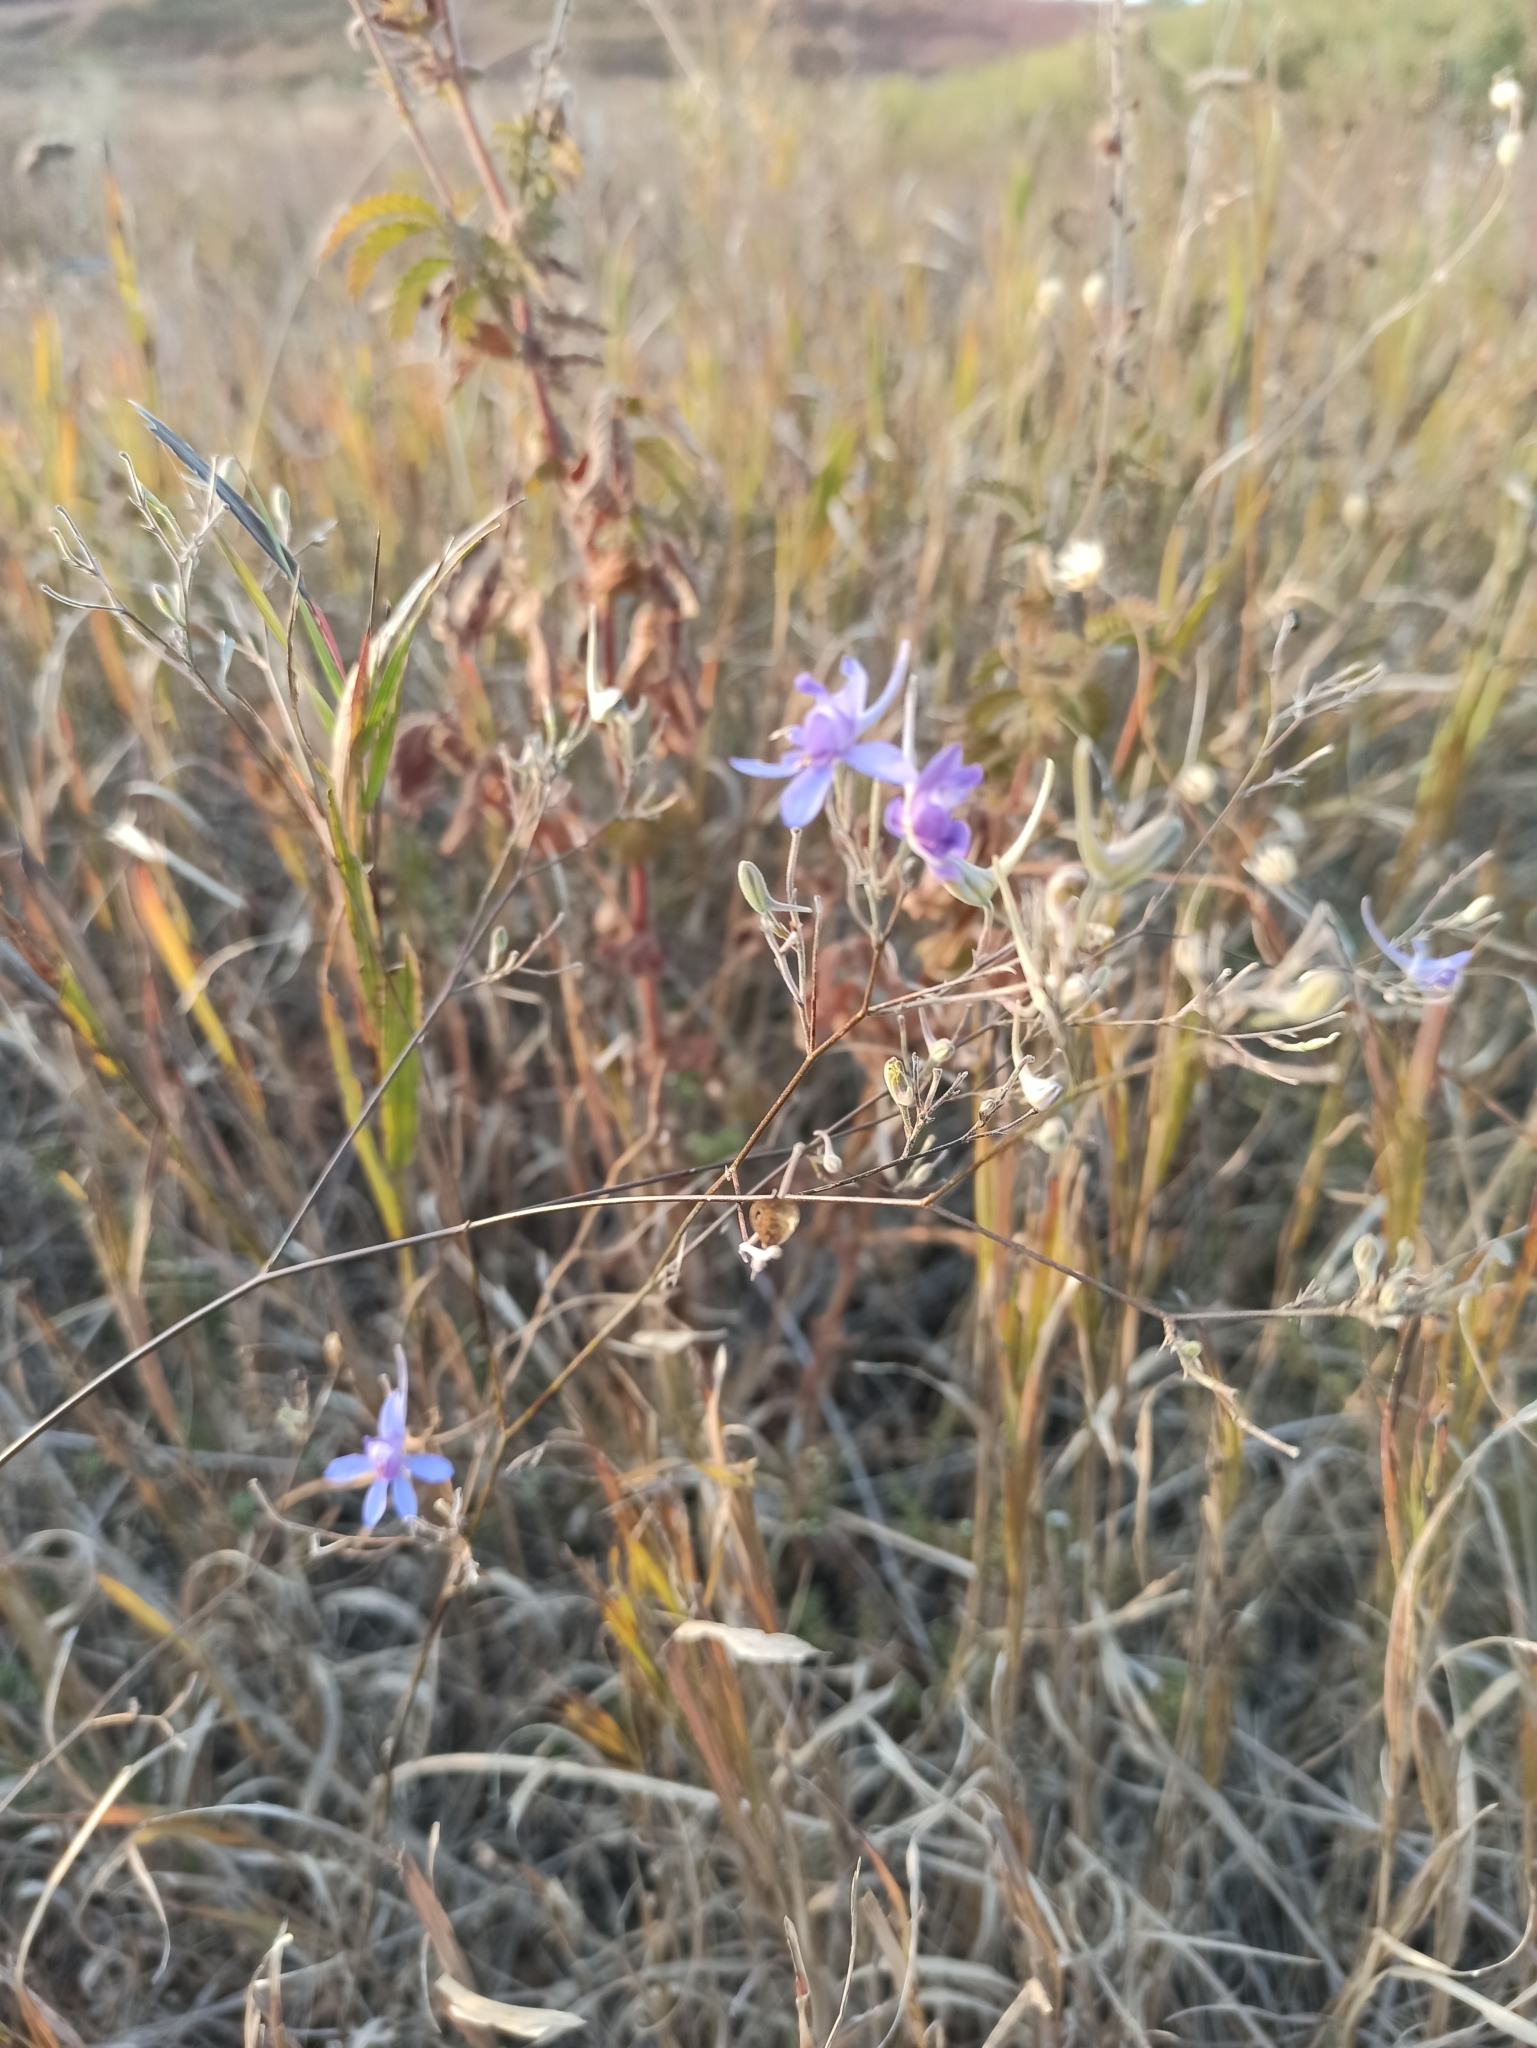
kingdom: Plantae
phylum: Tracheophyta
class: Magnoliopsida
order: Ranunculales
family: Ranunculaceae
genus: Delphinium
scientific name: Delphinium consolida
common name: Branching larkspur
